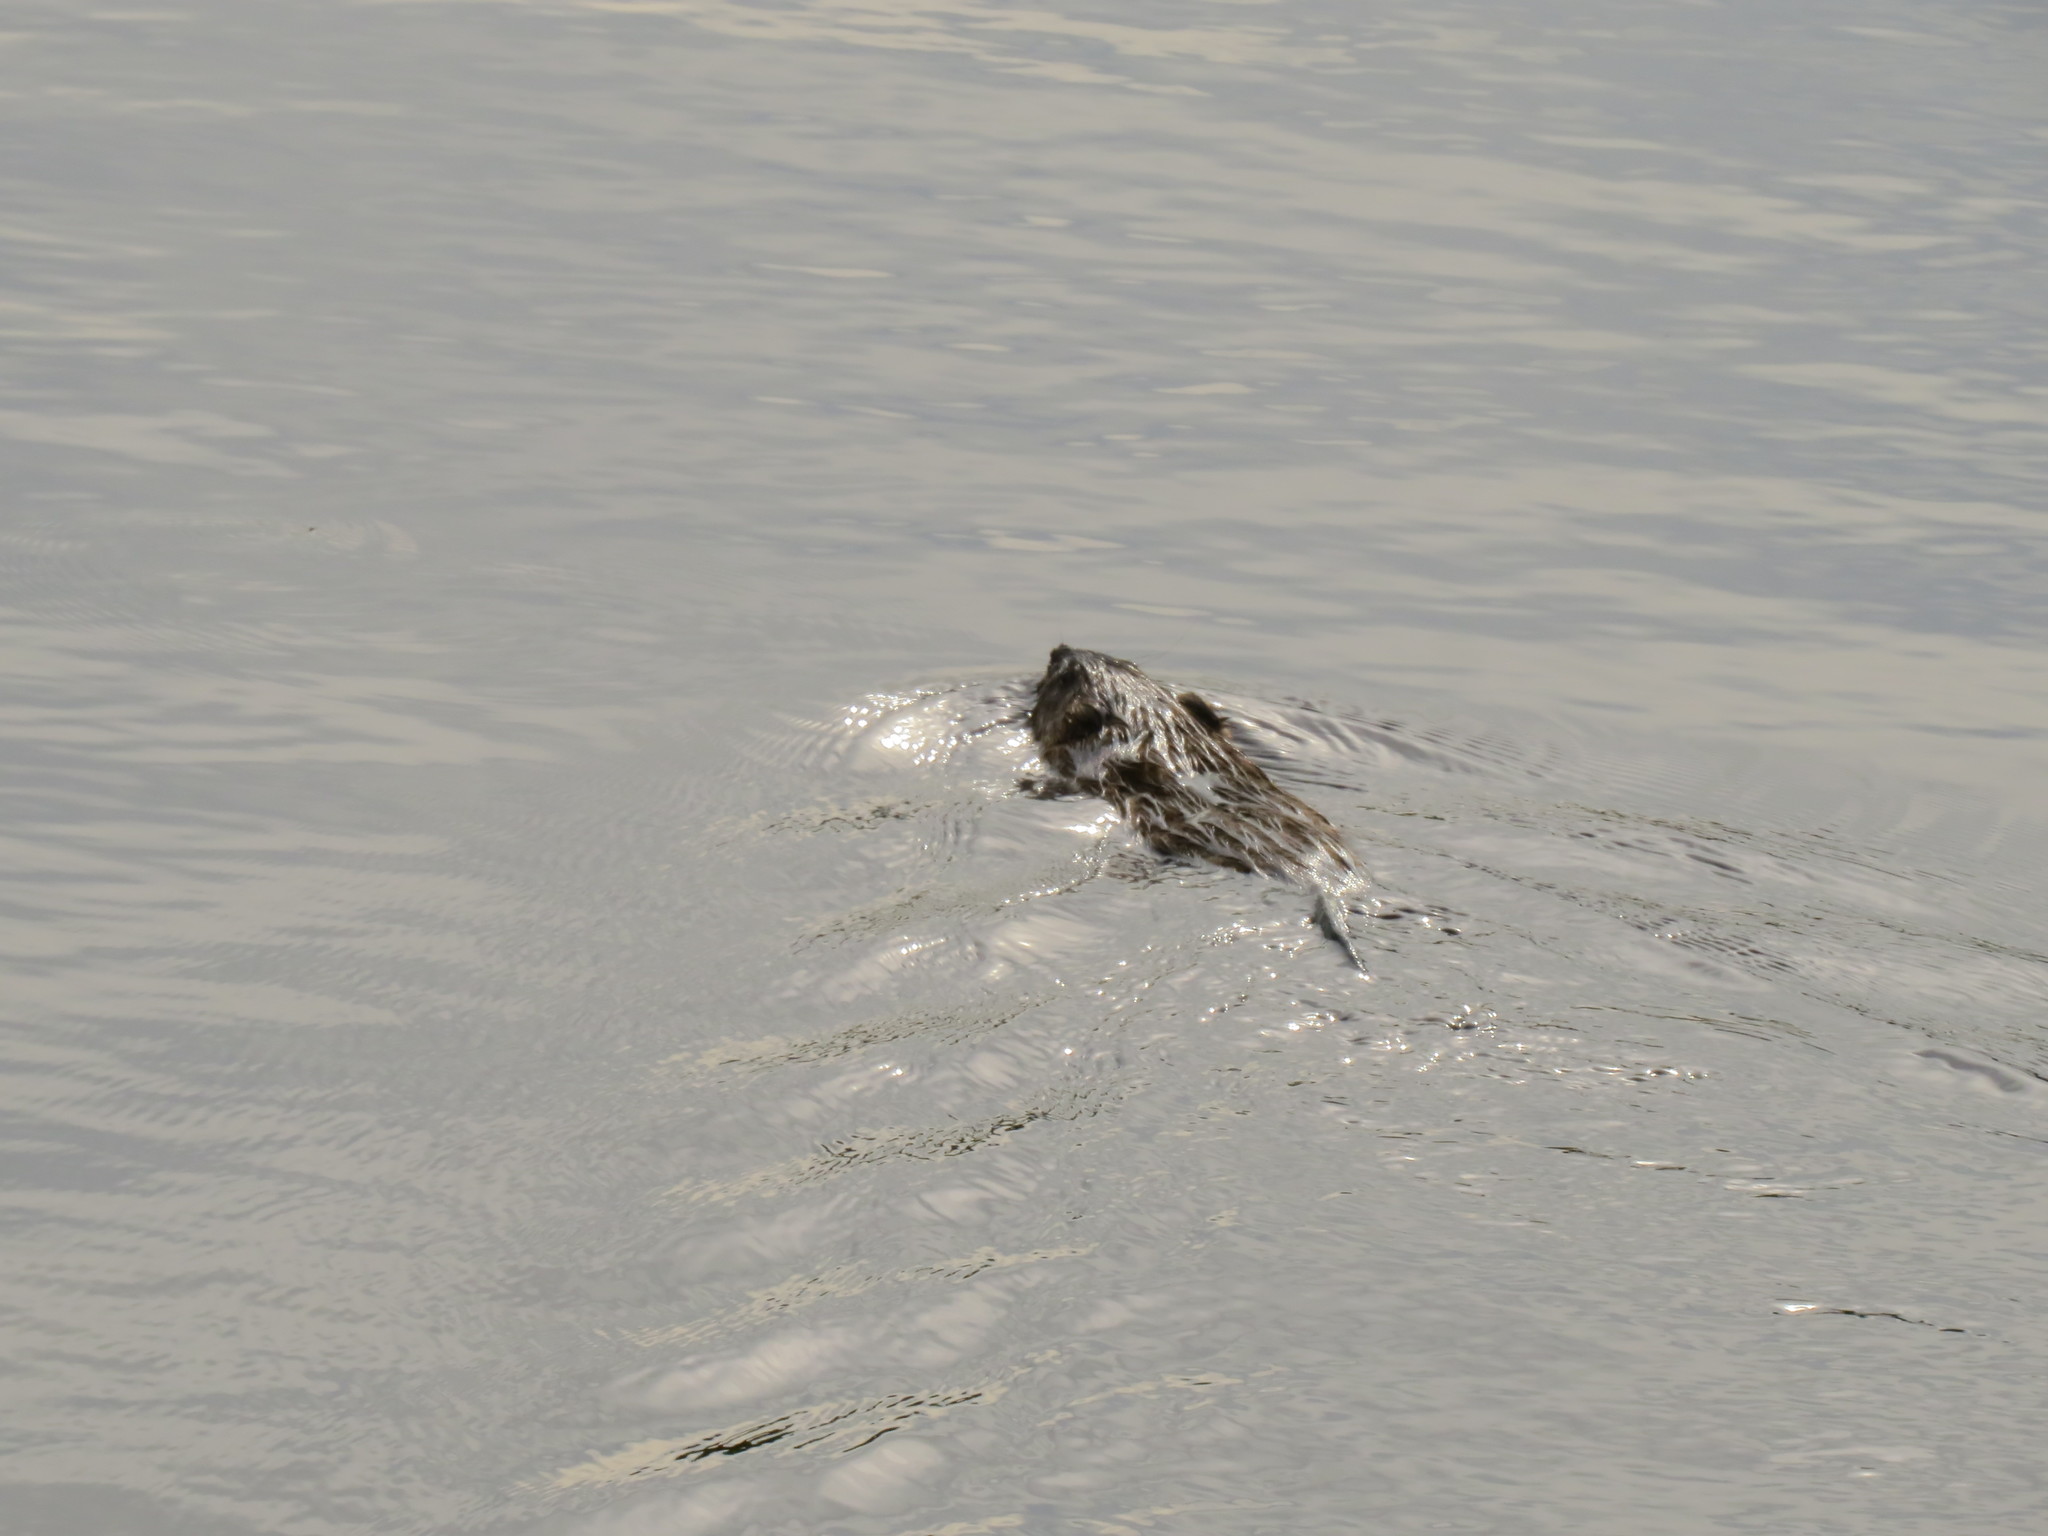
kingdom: Animalia
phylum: Chordata
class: Mammalia
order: Rodentia
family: Cricetidae
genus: Ondatra
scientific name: Ondatra zibethicus
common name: Muskrat
